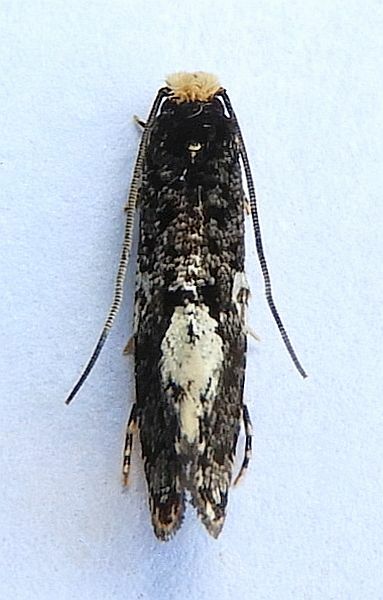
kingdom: Animalia
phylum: Arthropoda
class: Insecta
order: Lepidoptera
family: Tineidae
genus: Monopis
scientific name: Monopis marginistrigella
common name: White-blotched monopis moth
